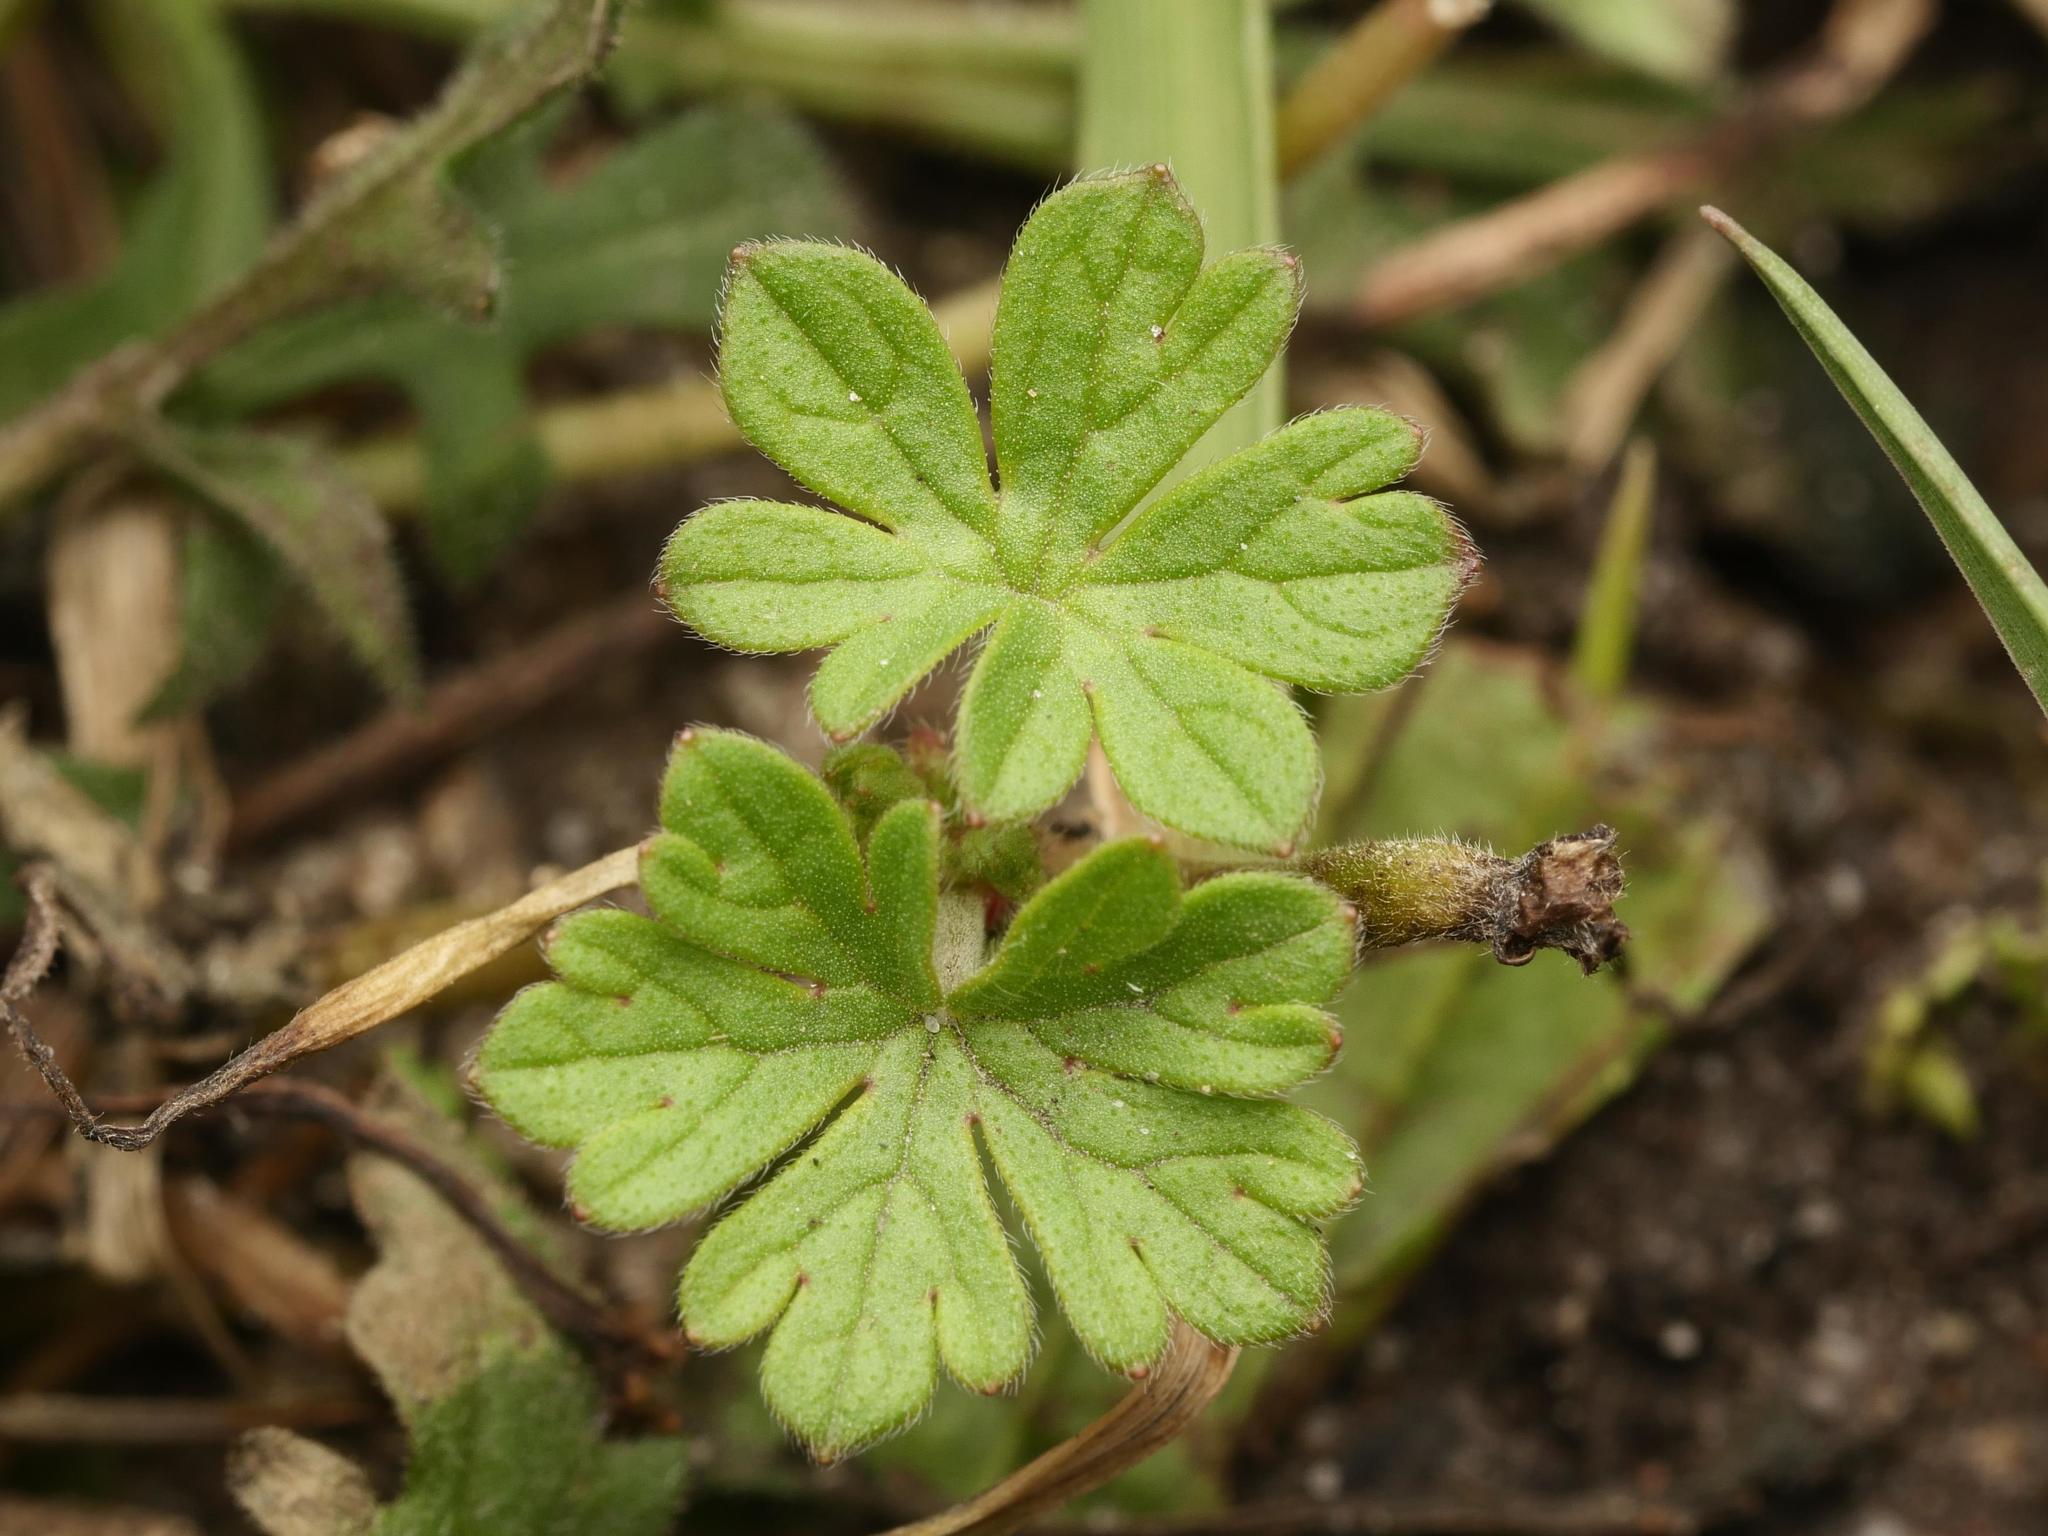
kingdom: Plantae
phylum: Tracheophyta
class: Magnoliopsida
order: Geraniales
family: Geraniaceae
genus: Geranium
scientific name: Geranium pusillum
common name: Small geranium
